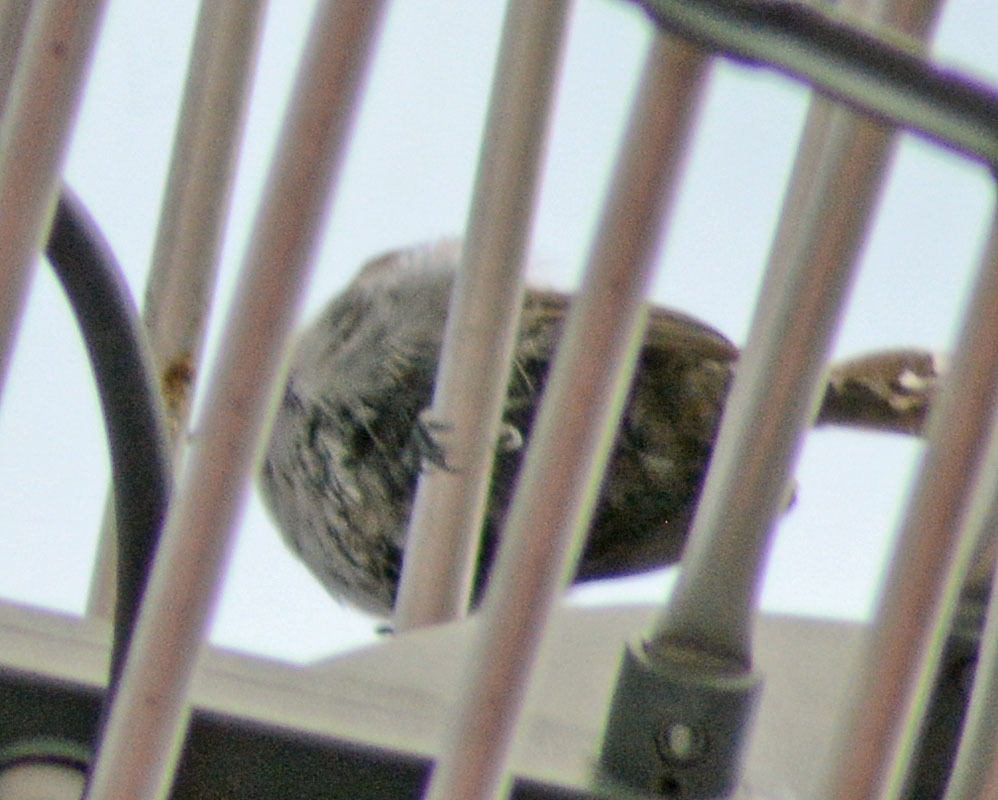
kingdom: Animalia
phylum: Chordata
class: Aves
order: Passeriformes
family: Troglodytidae
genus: Thryomanes
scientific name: Thryomanes bewickii
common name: Bewick's wren
